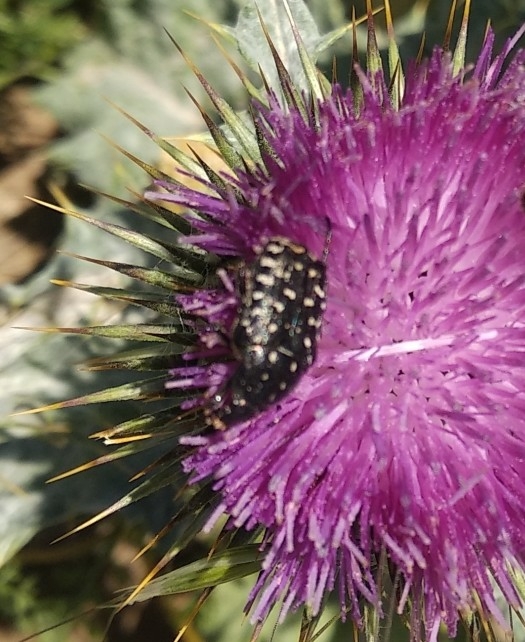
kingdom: Animalia
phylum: Arthropoda
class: Insecta
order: Coleoptera
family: Scarabaeidae
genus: Oxythyrea
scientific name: Oxythyrea funesta
